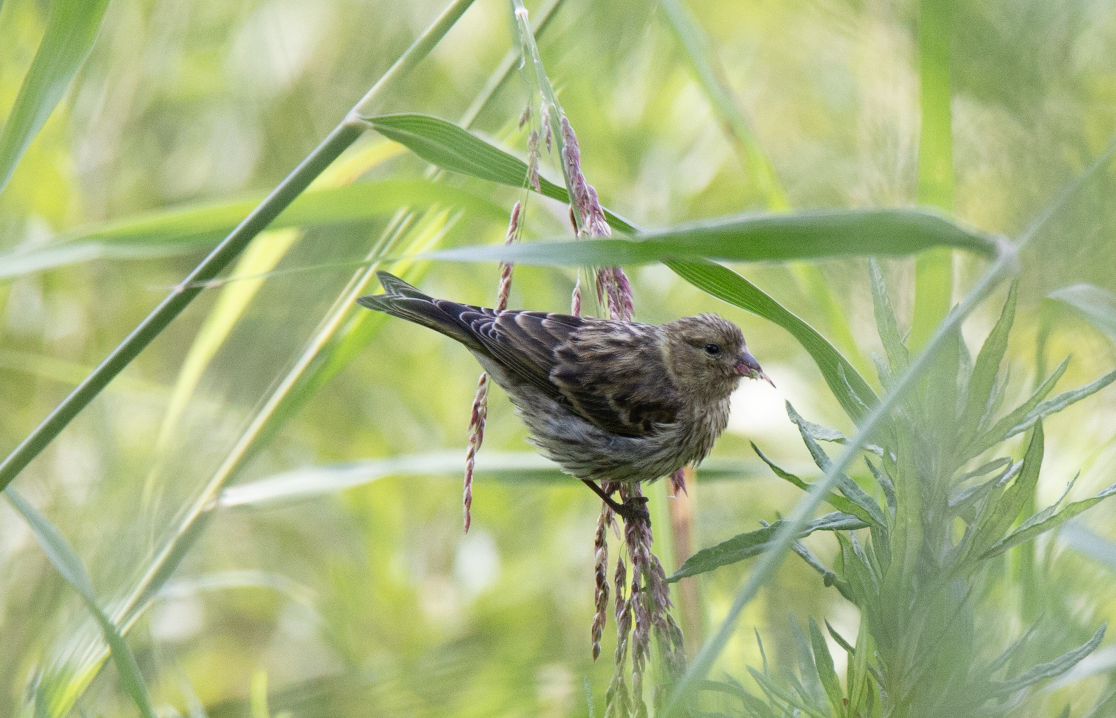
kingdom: Animalia
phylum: Chordata
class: Aves
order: Passeriformes
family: Fringillidae
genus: Serinus
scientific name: Serinus serinus
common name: European serin
